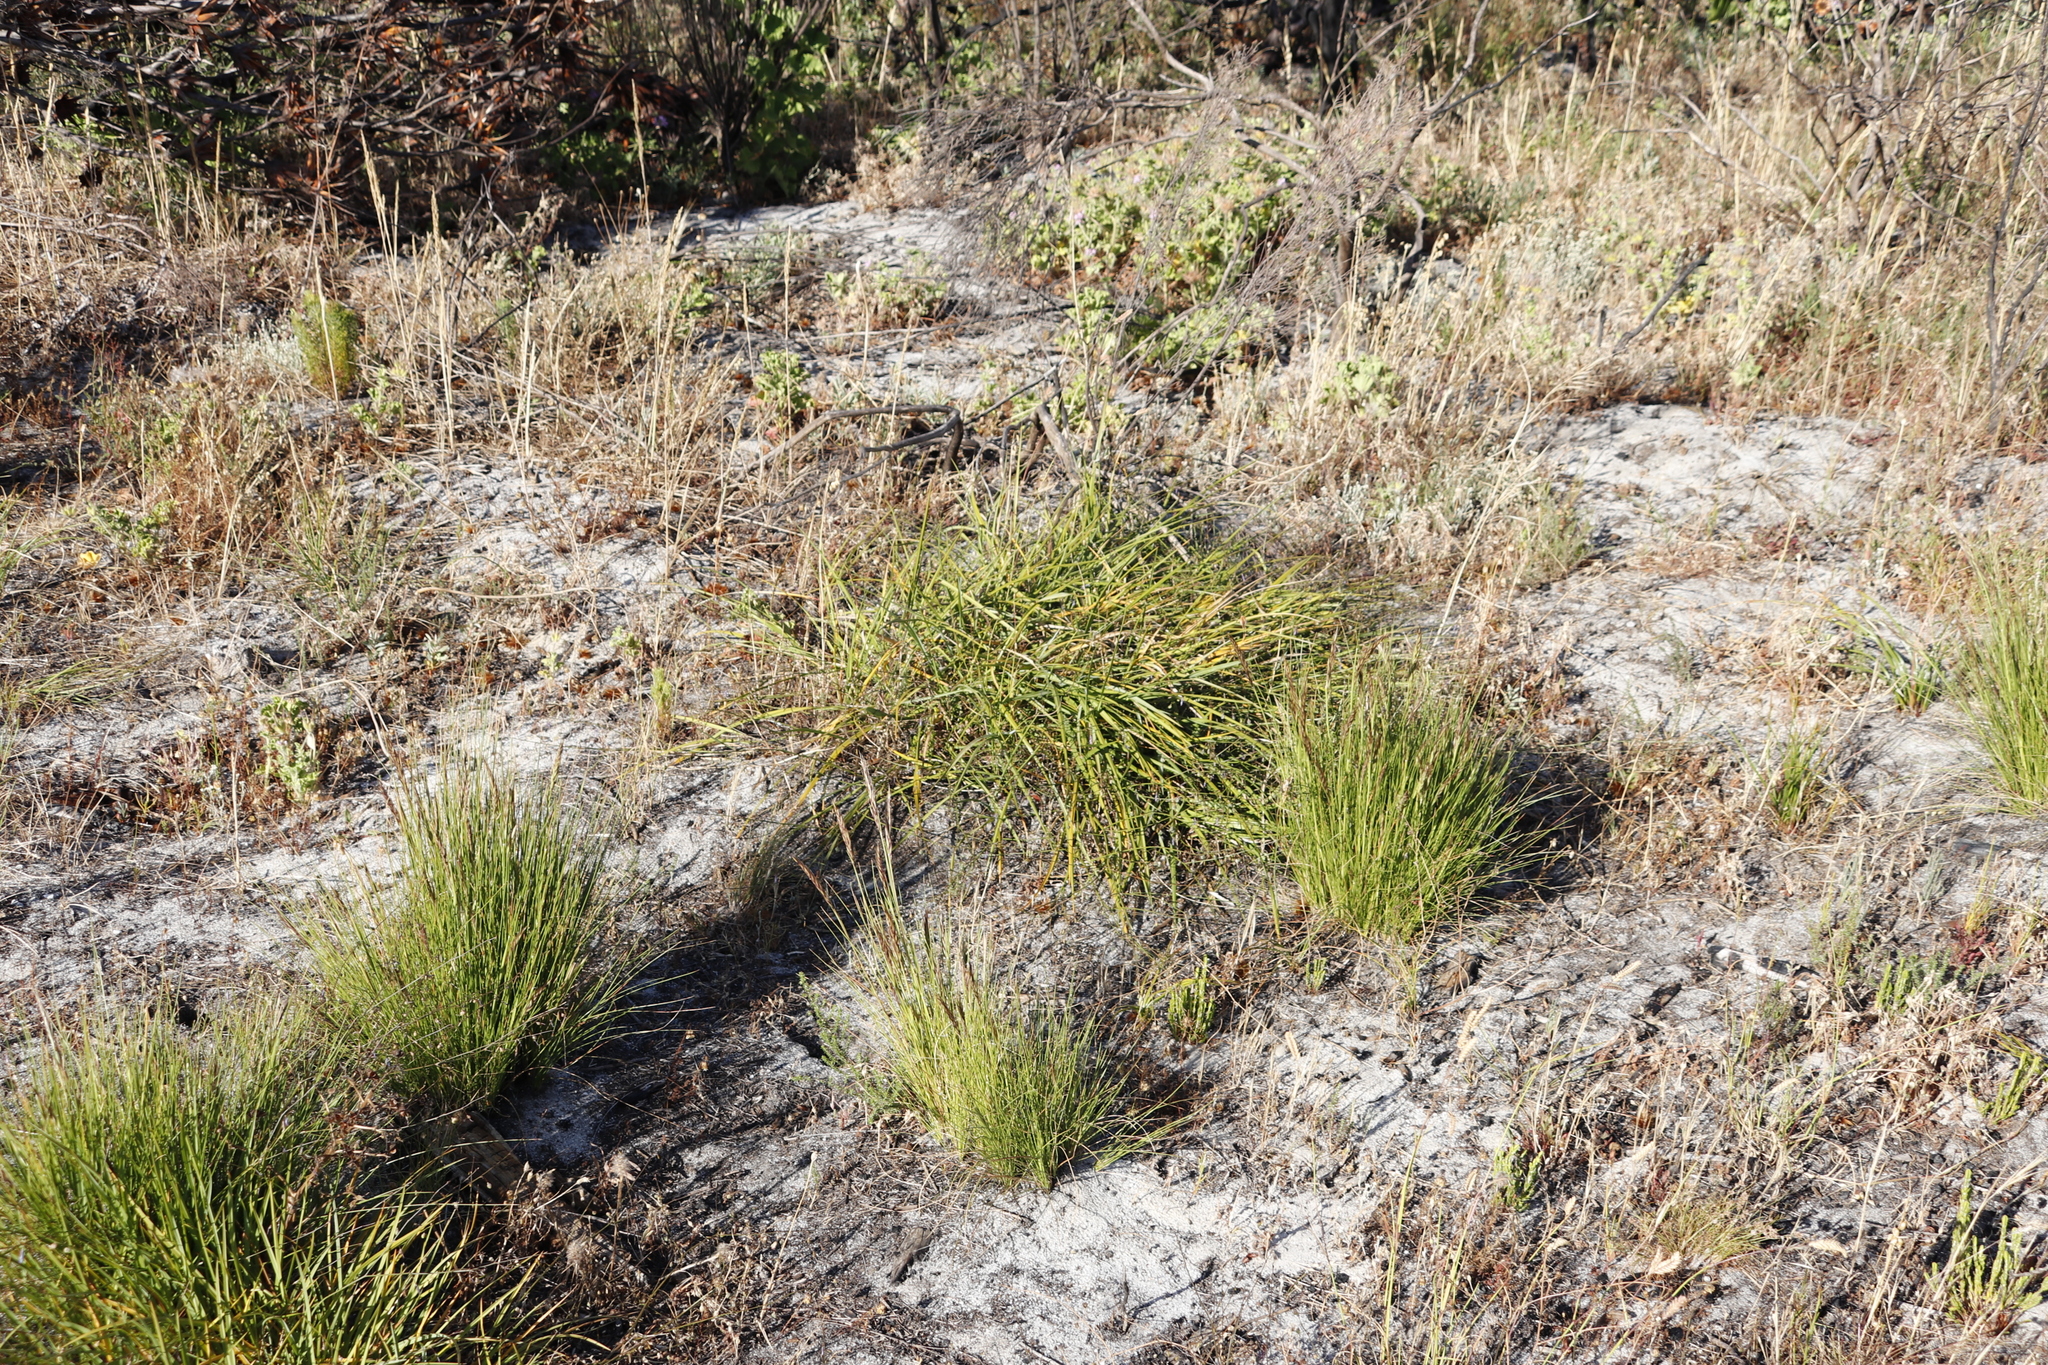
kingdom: Plantae
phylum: Tracheophyta
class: Liliopsida
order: Asparagales
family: Asphodelaceae
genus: Caesia
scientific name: Caesia contorta
